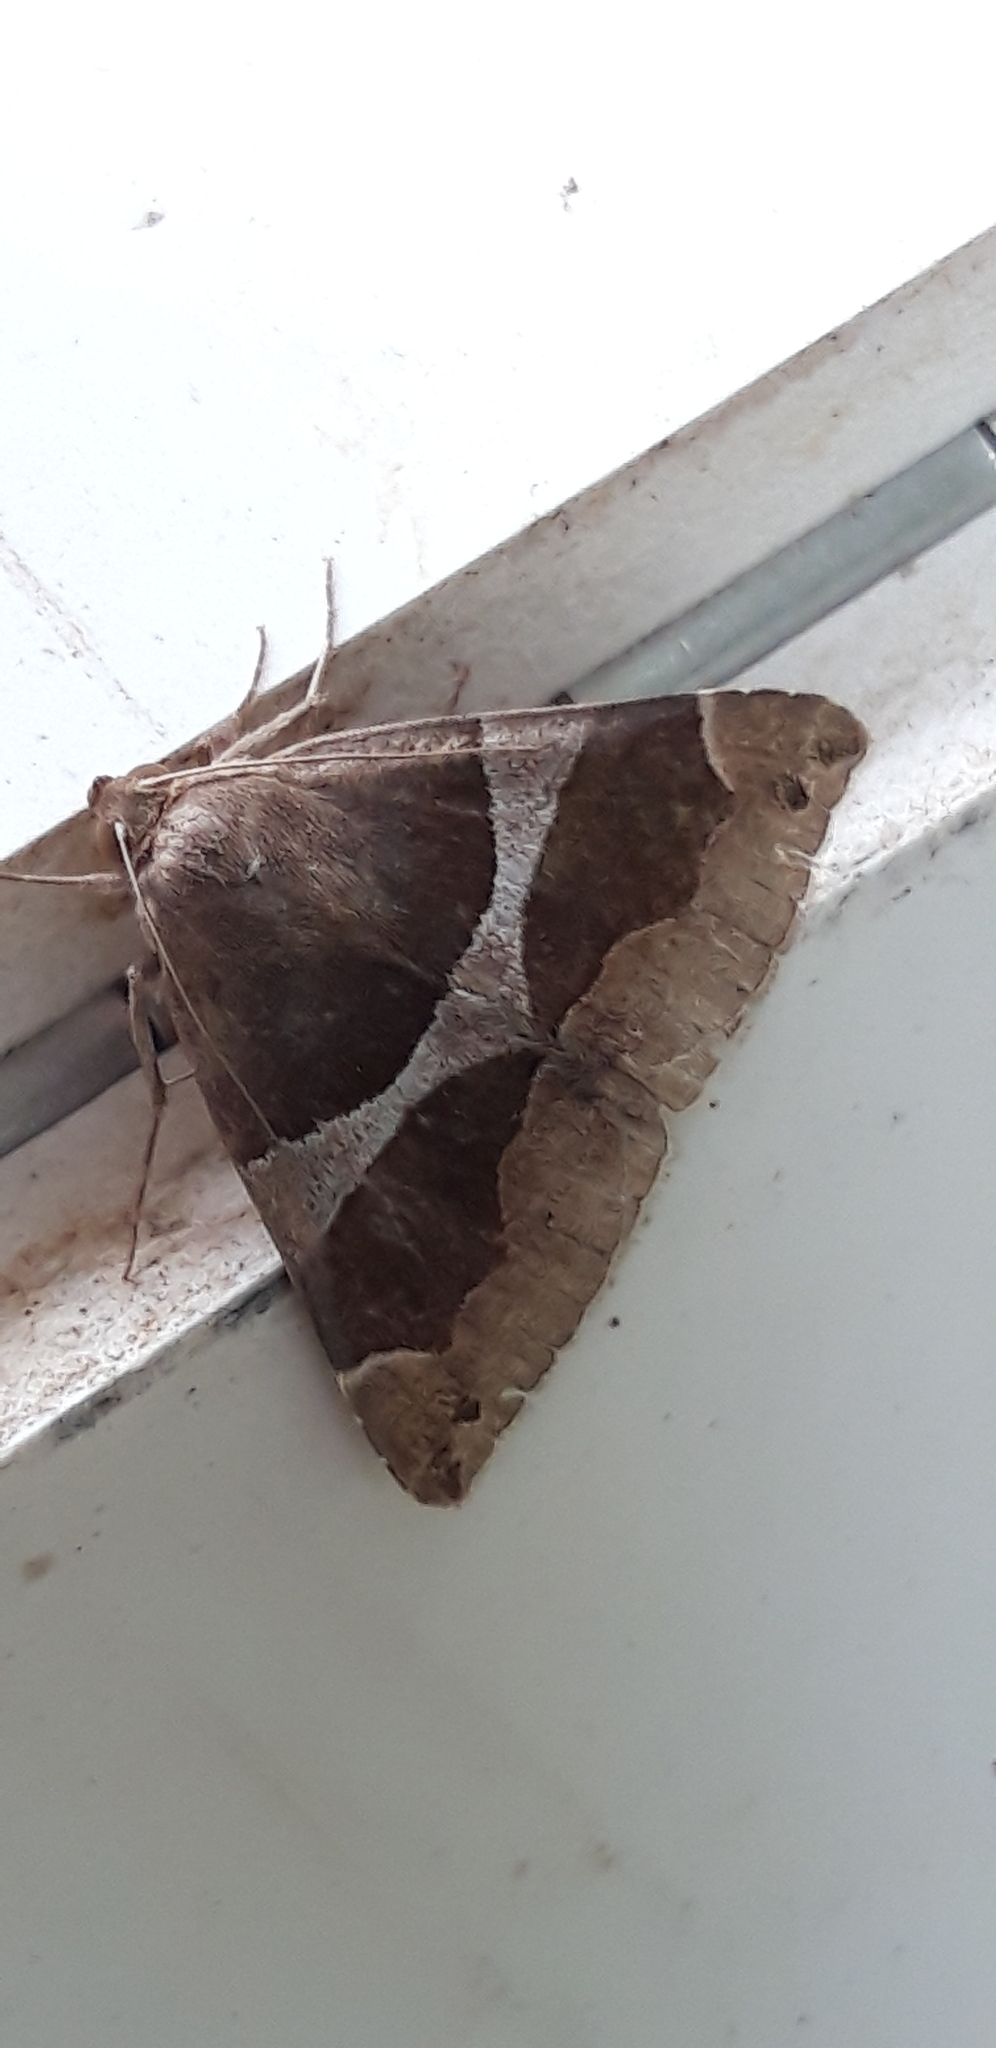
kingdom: Animalia
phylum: Arthropoda
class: Insecta
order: Lepidoptera
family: Erebidae
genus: Dysgonia
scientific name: Dysgonia algira
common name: Passenger
